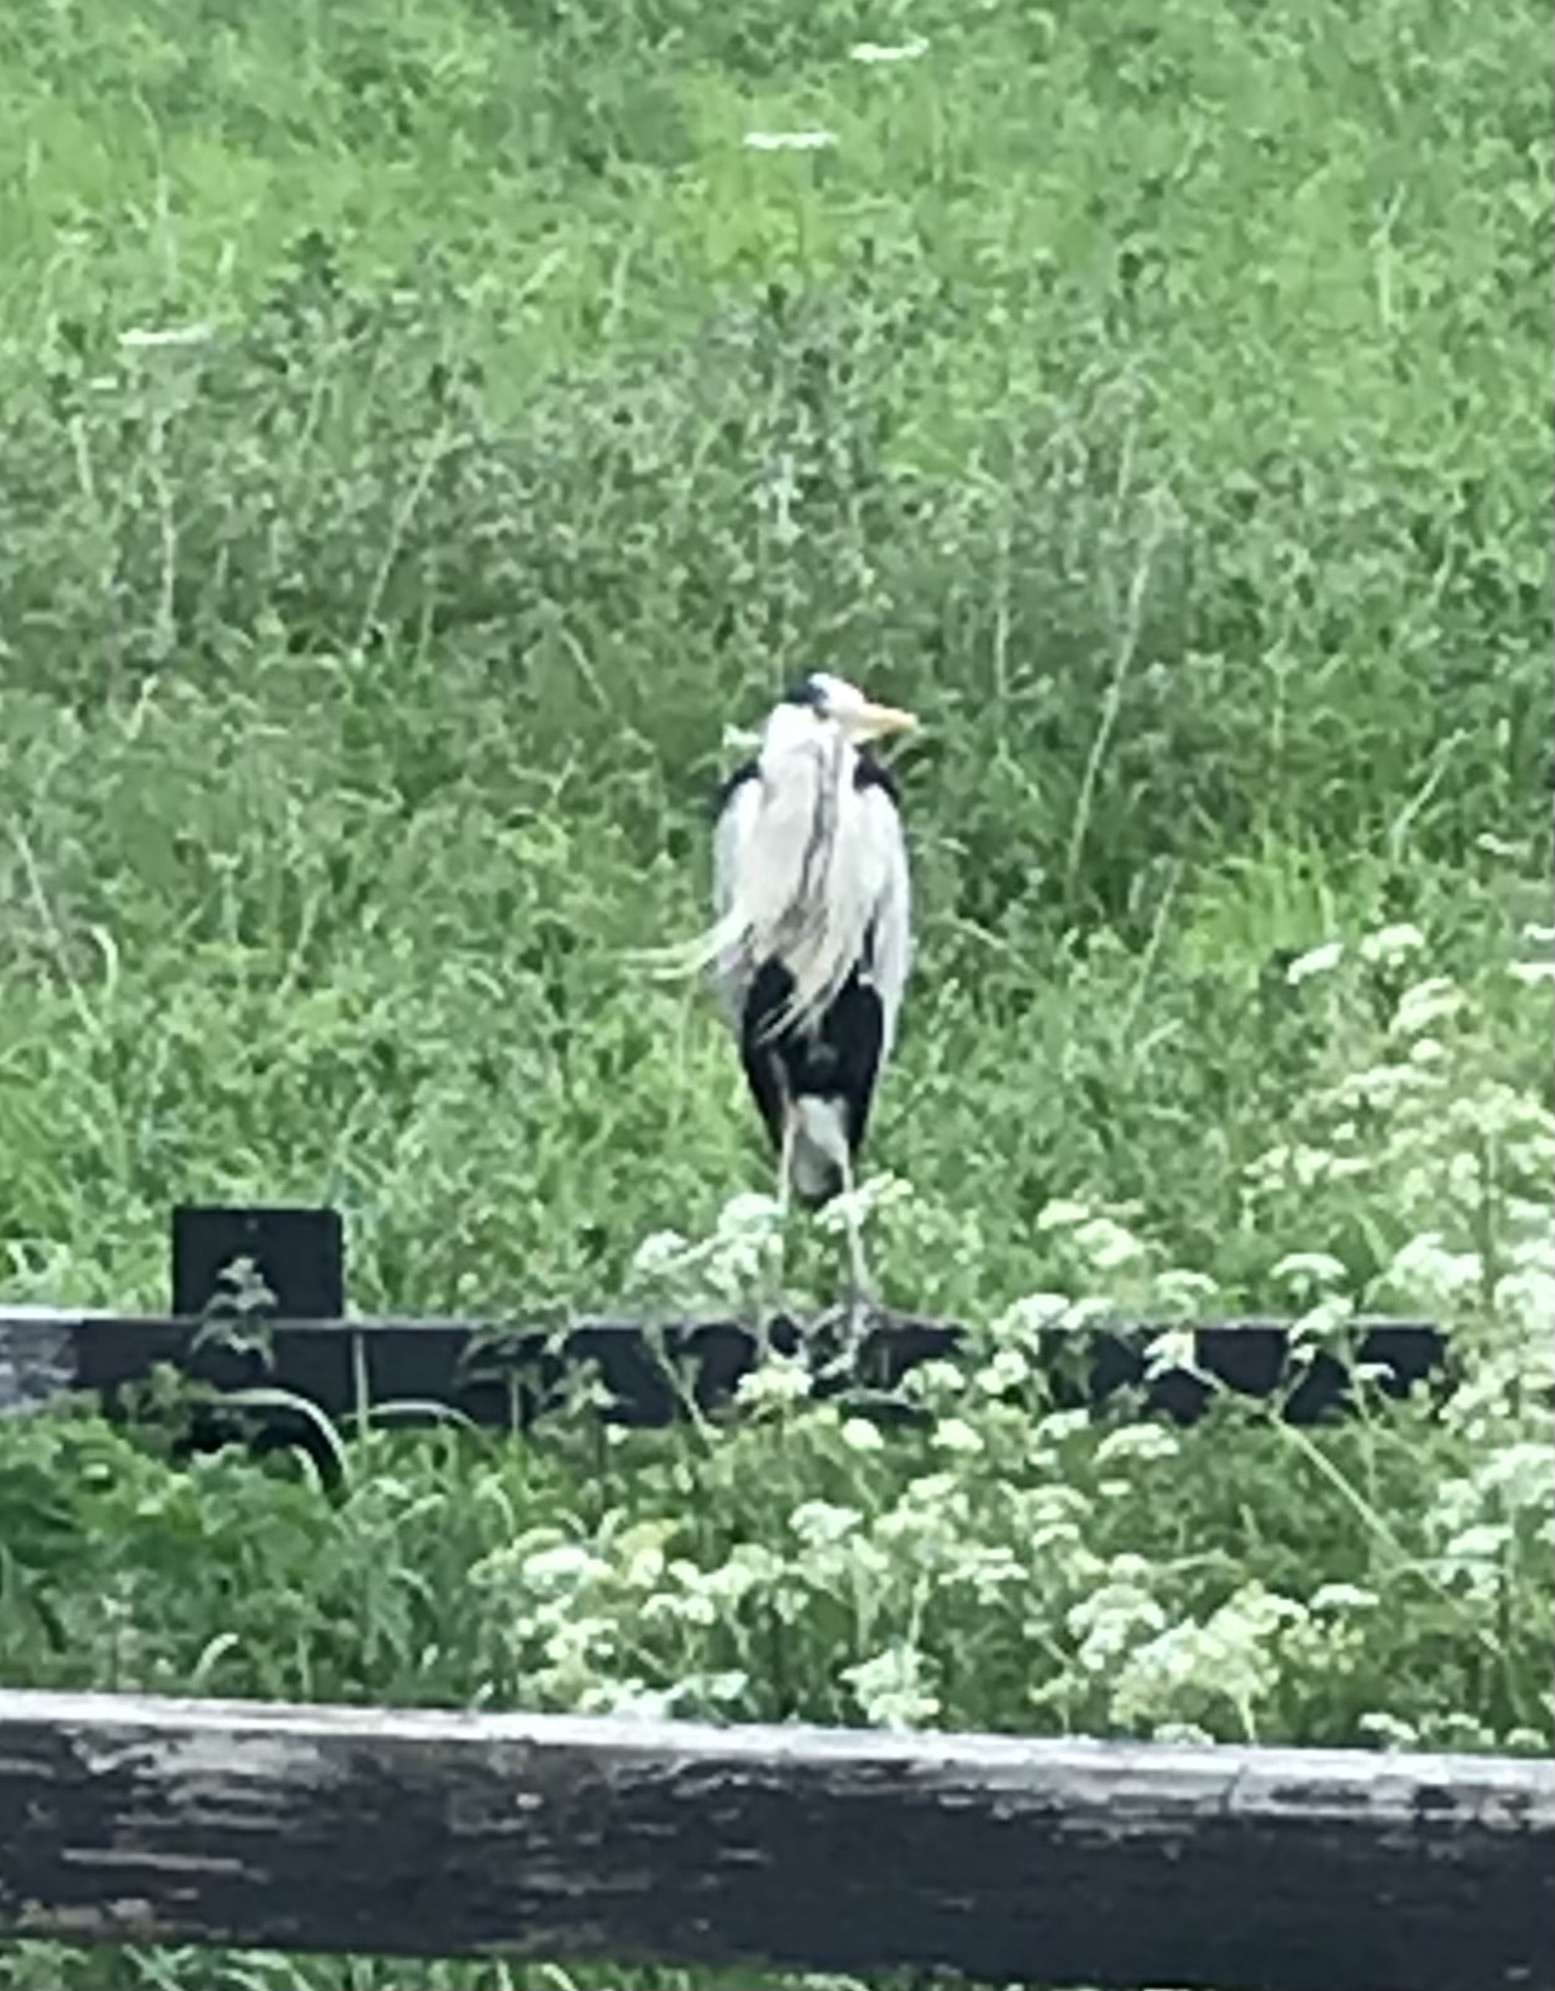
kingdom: Animalia
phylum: Chordata
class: Aves
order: Pelecaniformes
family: Ardeidae
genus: Ardea
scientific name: Ardea cinerea
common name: Grey heron
